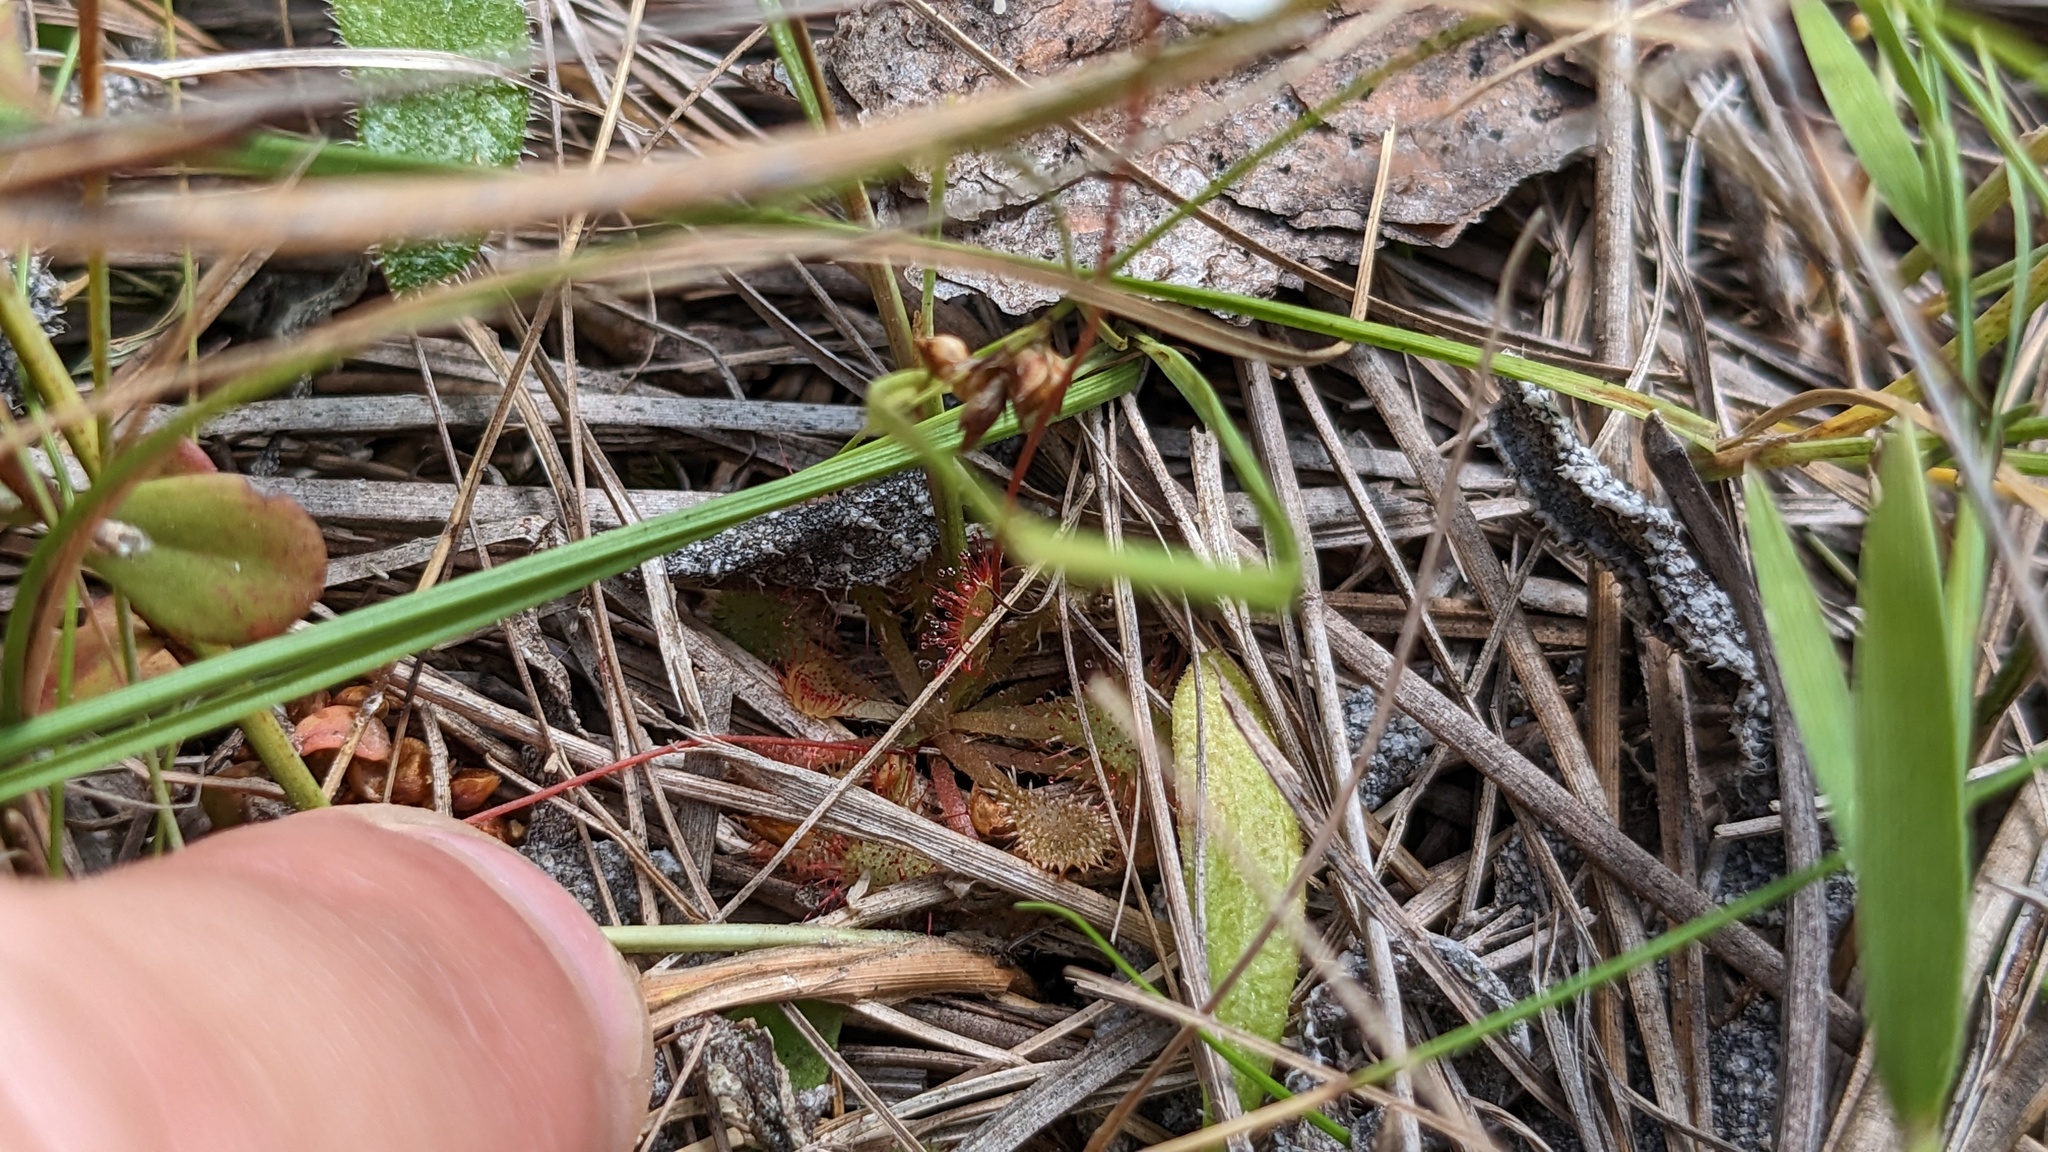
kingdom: Plantae
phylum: Tracheophyta
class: Magnoliopsida
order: Caryophyllales
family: Droseraceae
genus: Drosera
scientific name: Drosera capillaris
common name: Pink sundew
